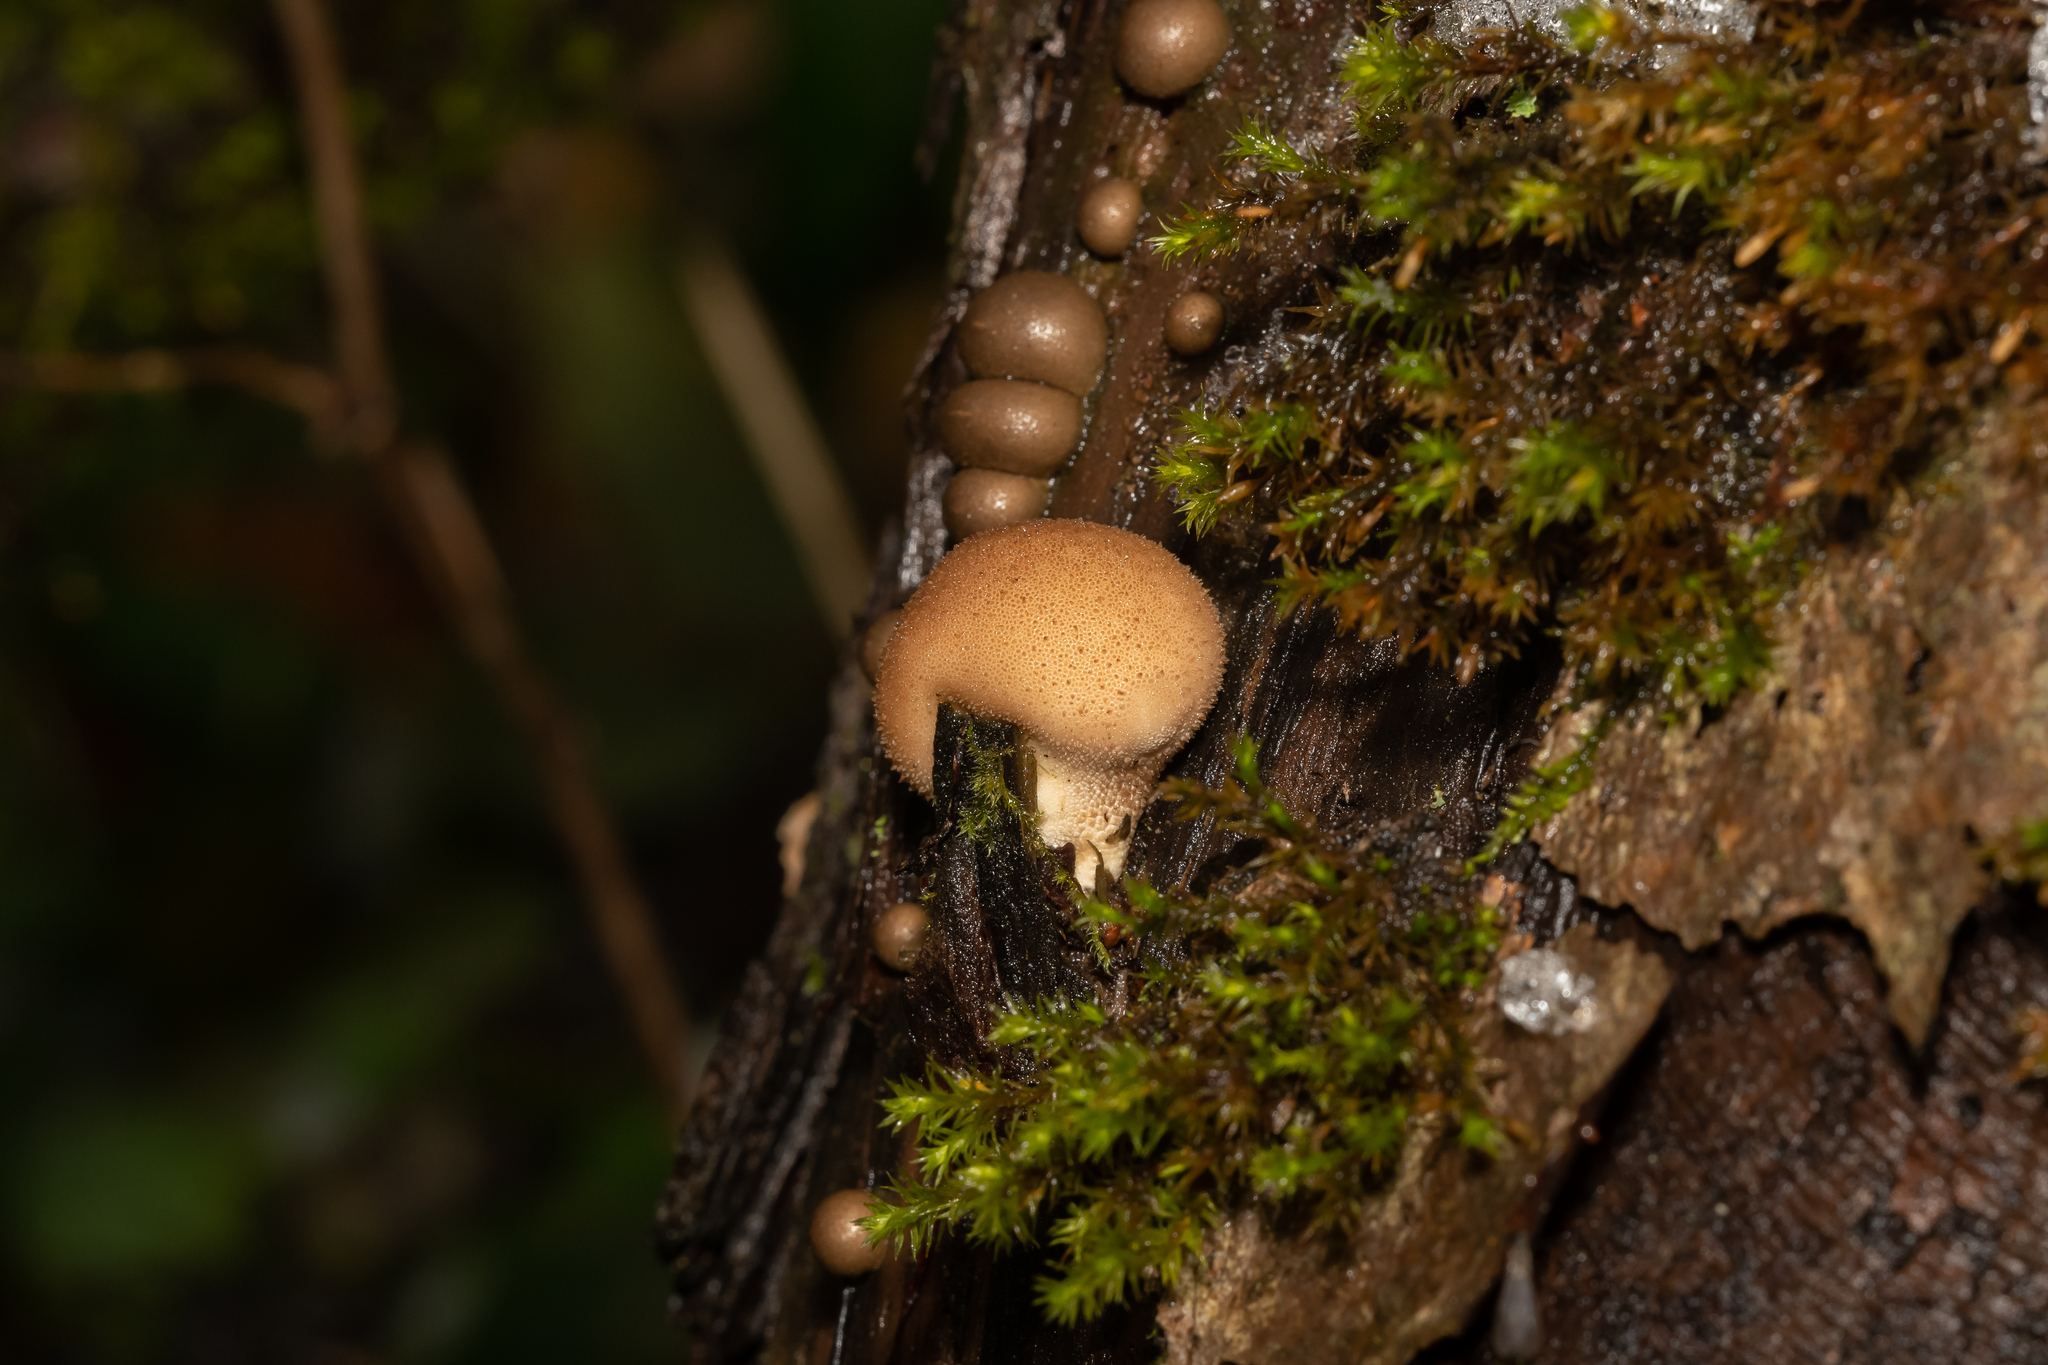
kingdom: Fungi
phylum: Basidiomycota
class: Agaricomycetes
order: Agaricales
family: Lycoperdaceae
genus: Apioperdon
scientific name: Apioperdon pyriforme
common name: Pear-shaped puffball
